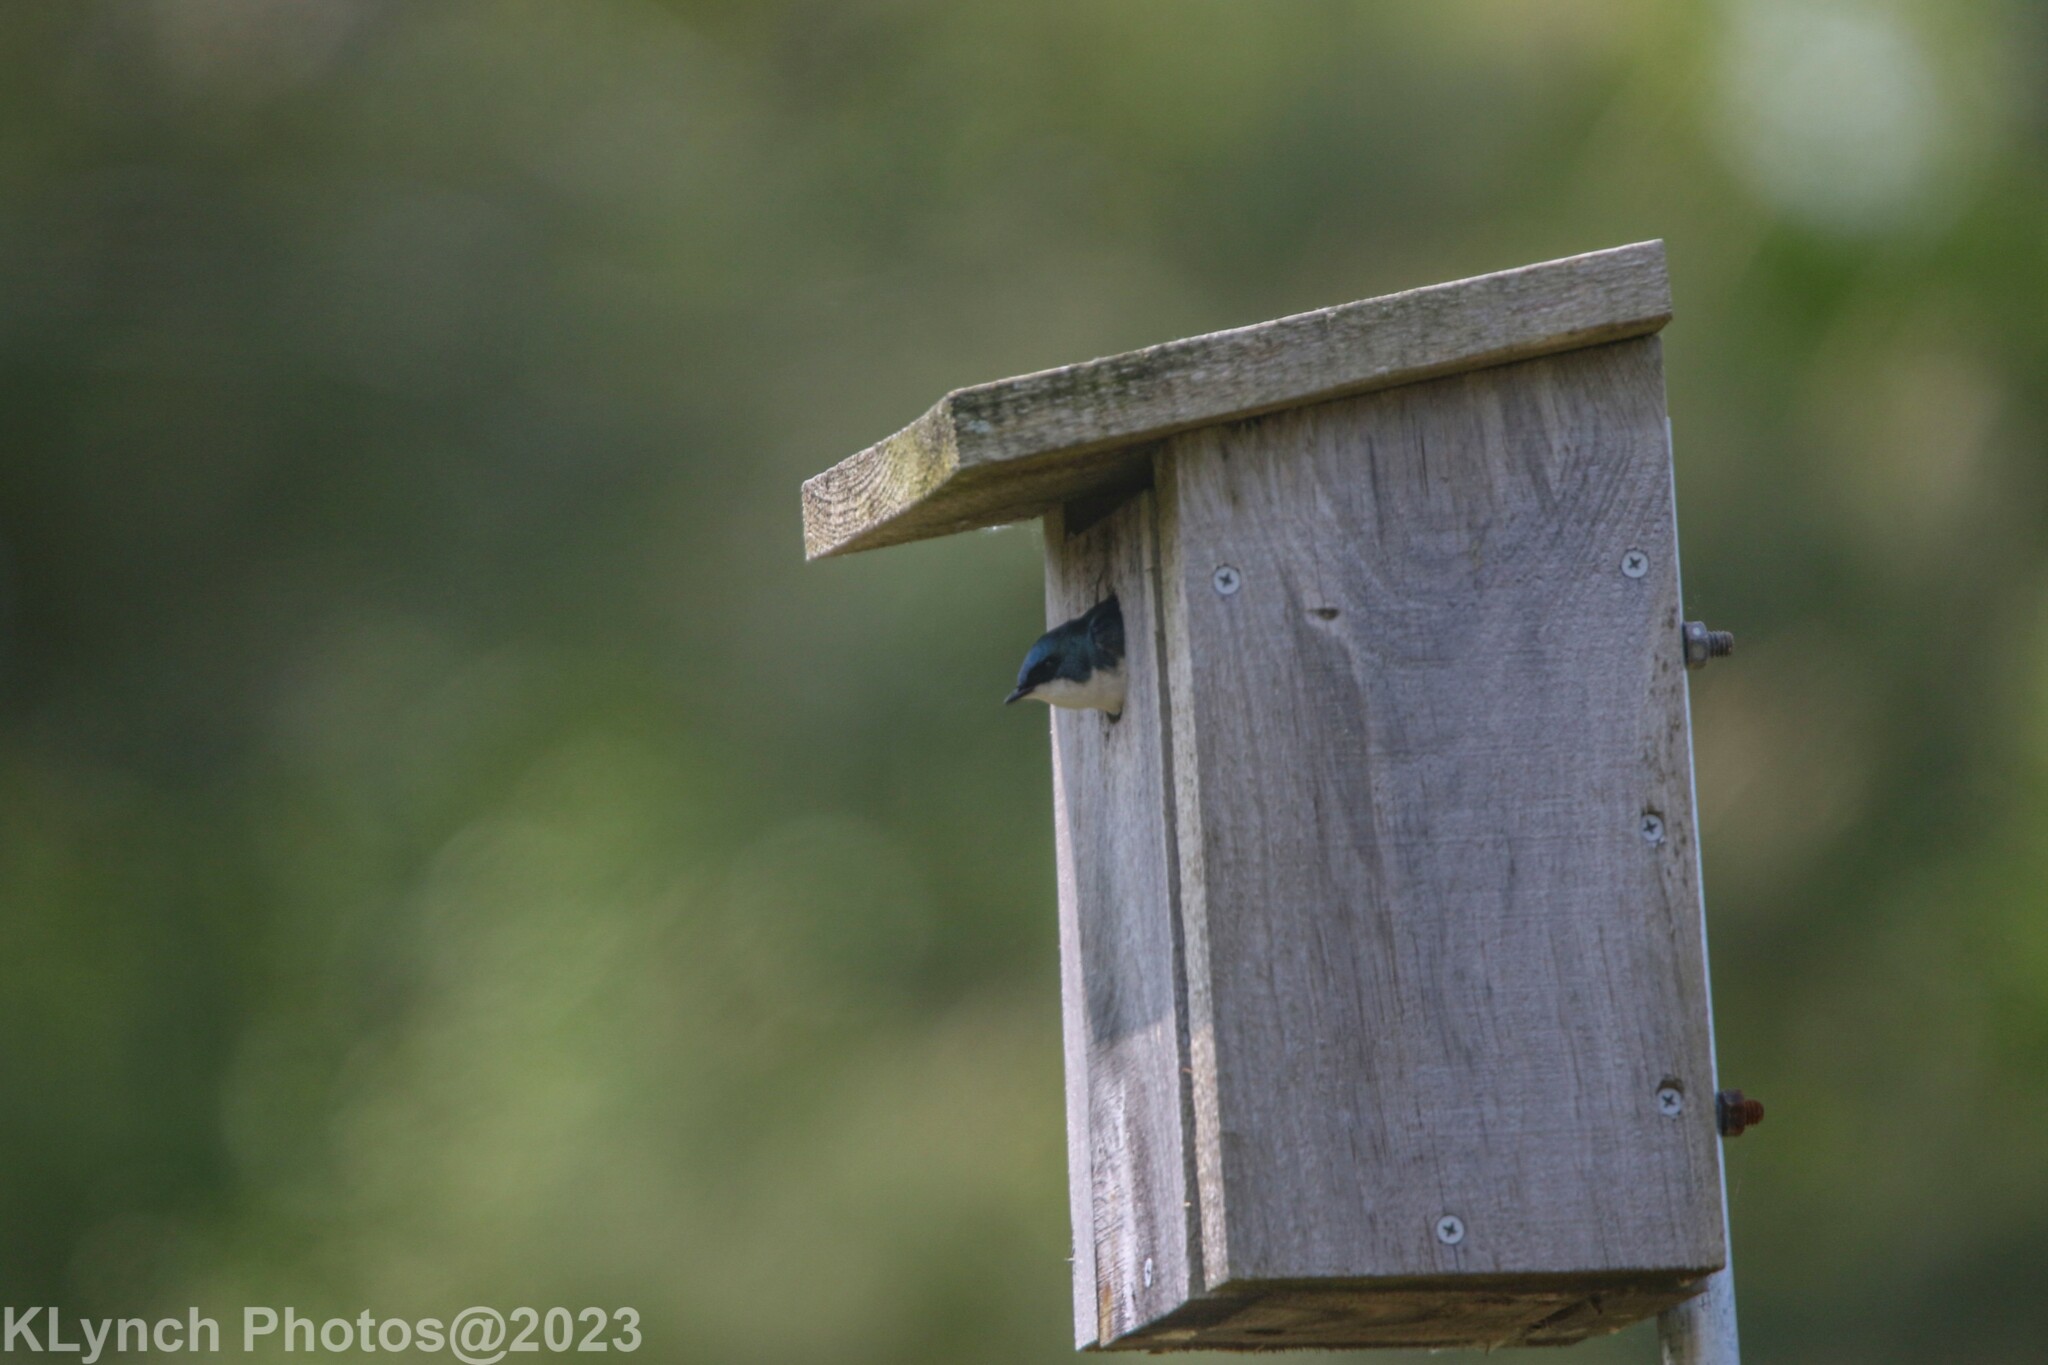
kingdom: Animalia
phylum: Chordata
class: Aves
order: Passeriformes
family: Hirundinidae
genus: Tachycineta
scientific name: Tachycineta bicolor
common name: Tree swallow
